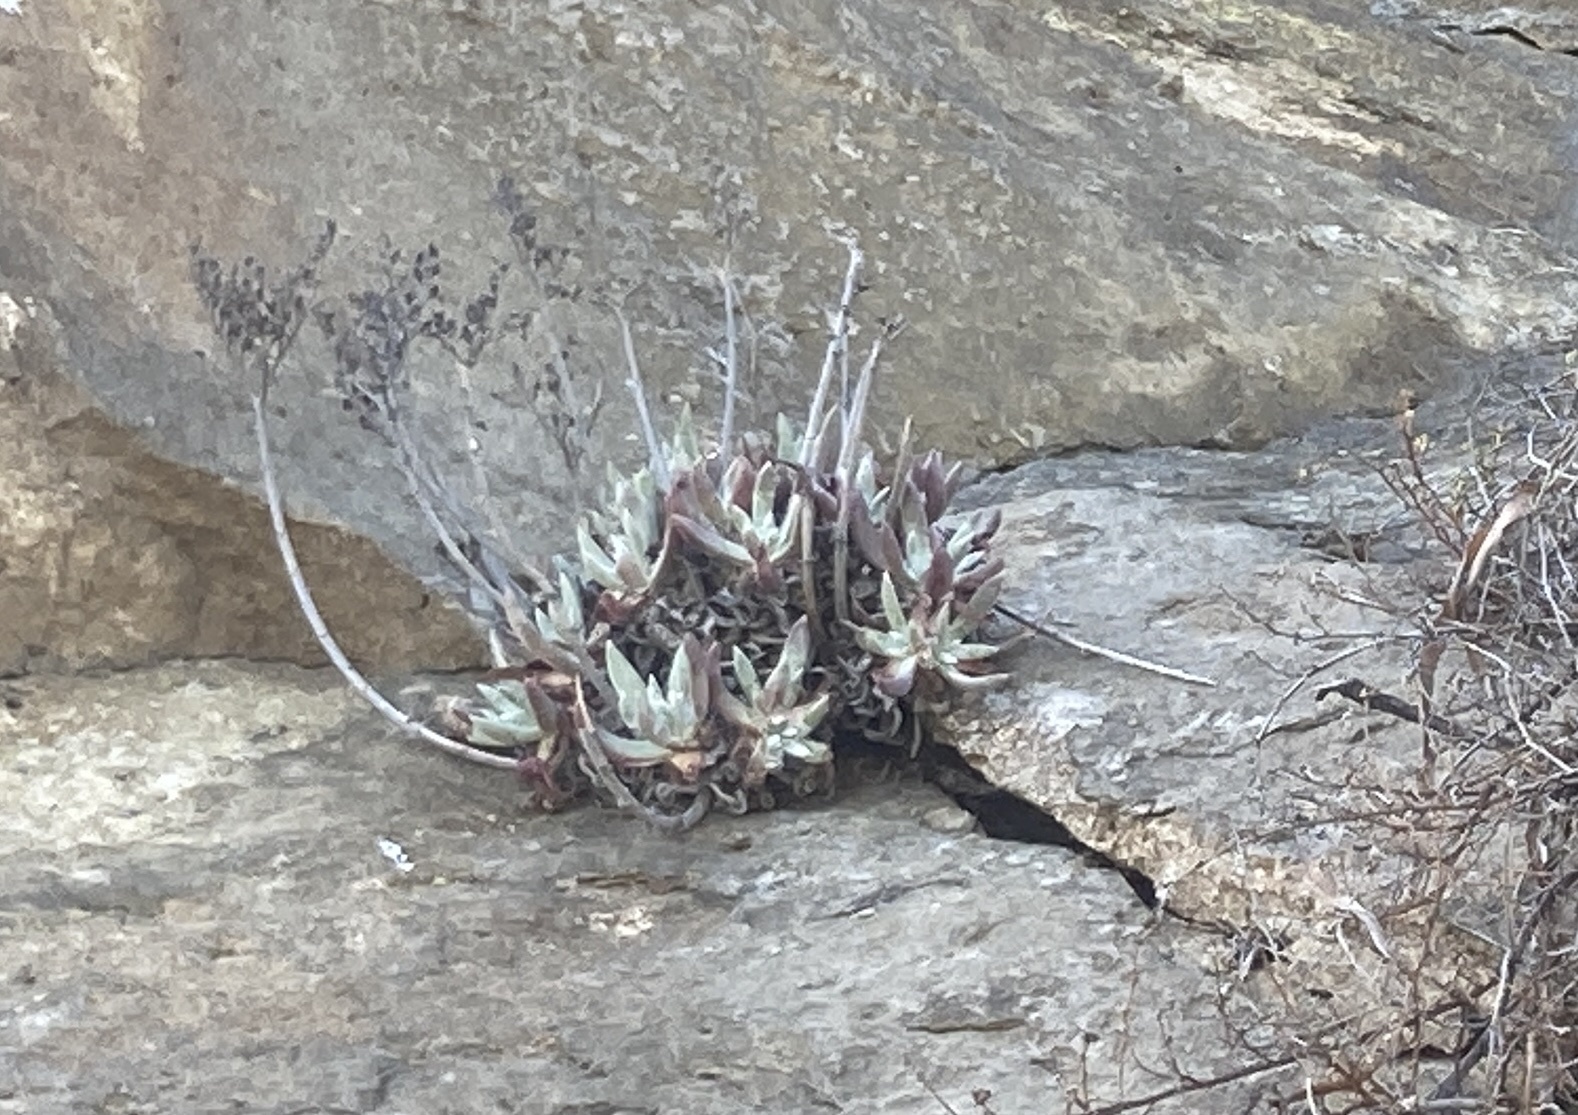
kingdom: Plantae
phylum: Tracheophyta
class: Magnoliopsida
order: Saxifragales
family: Crassulaceae
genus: Dudleya
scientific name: Dudleya caespitosa
